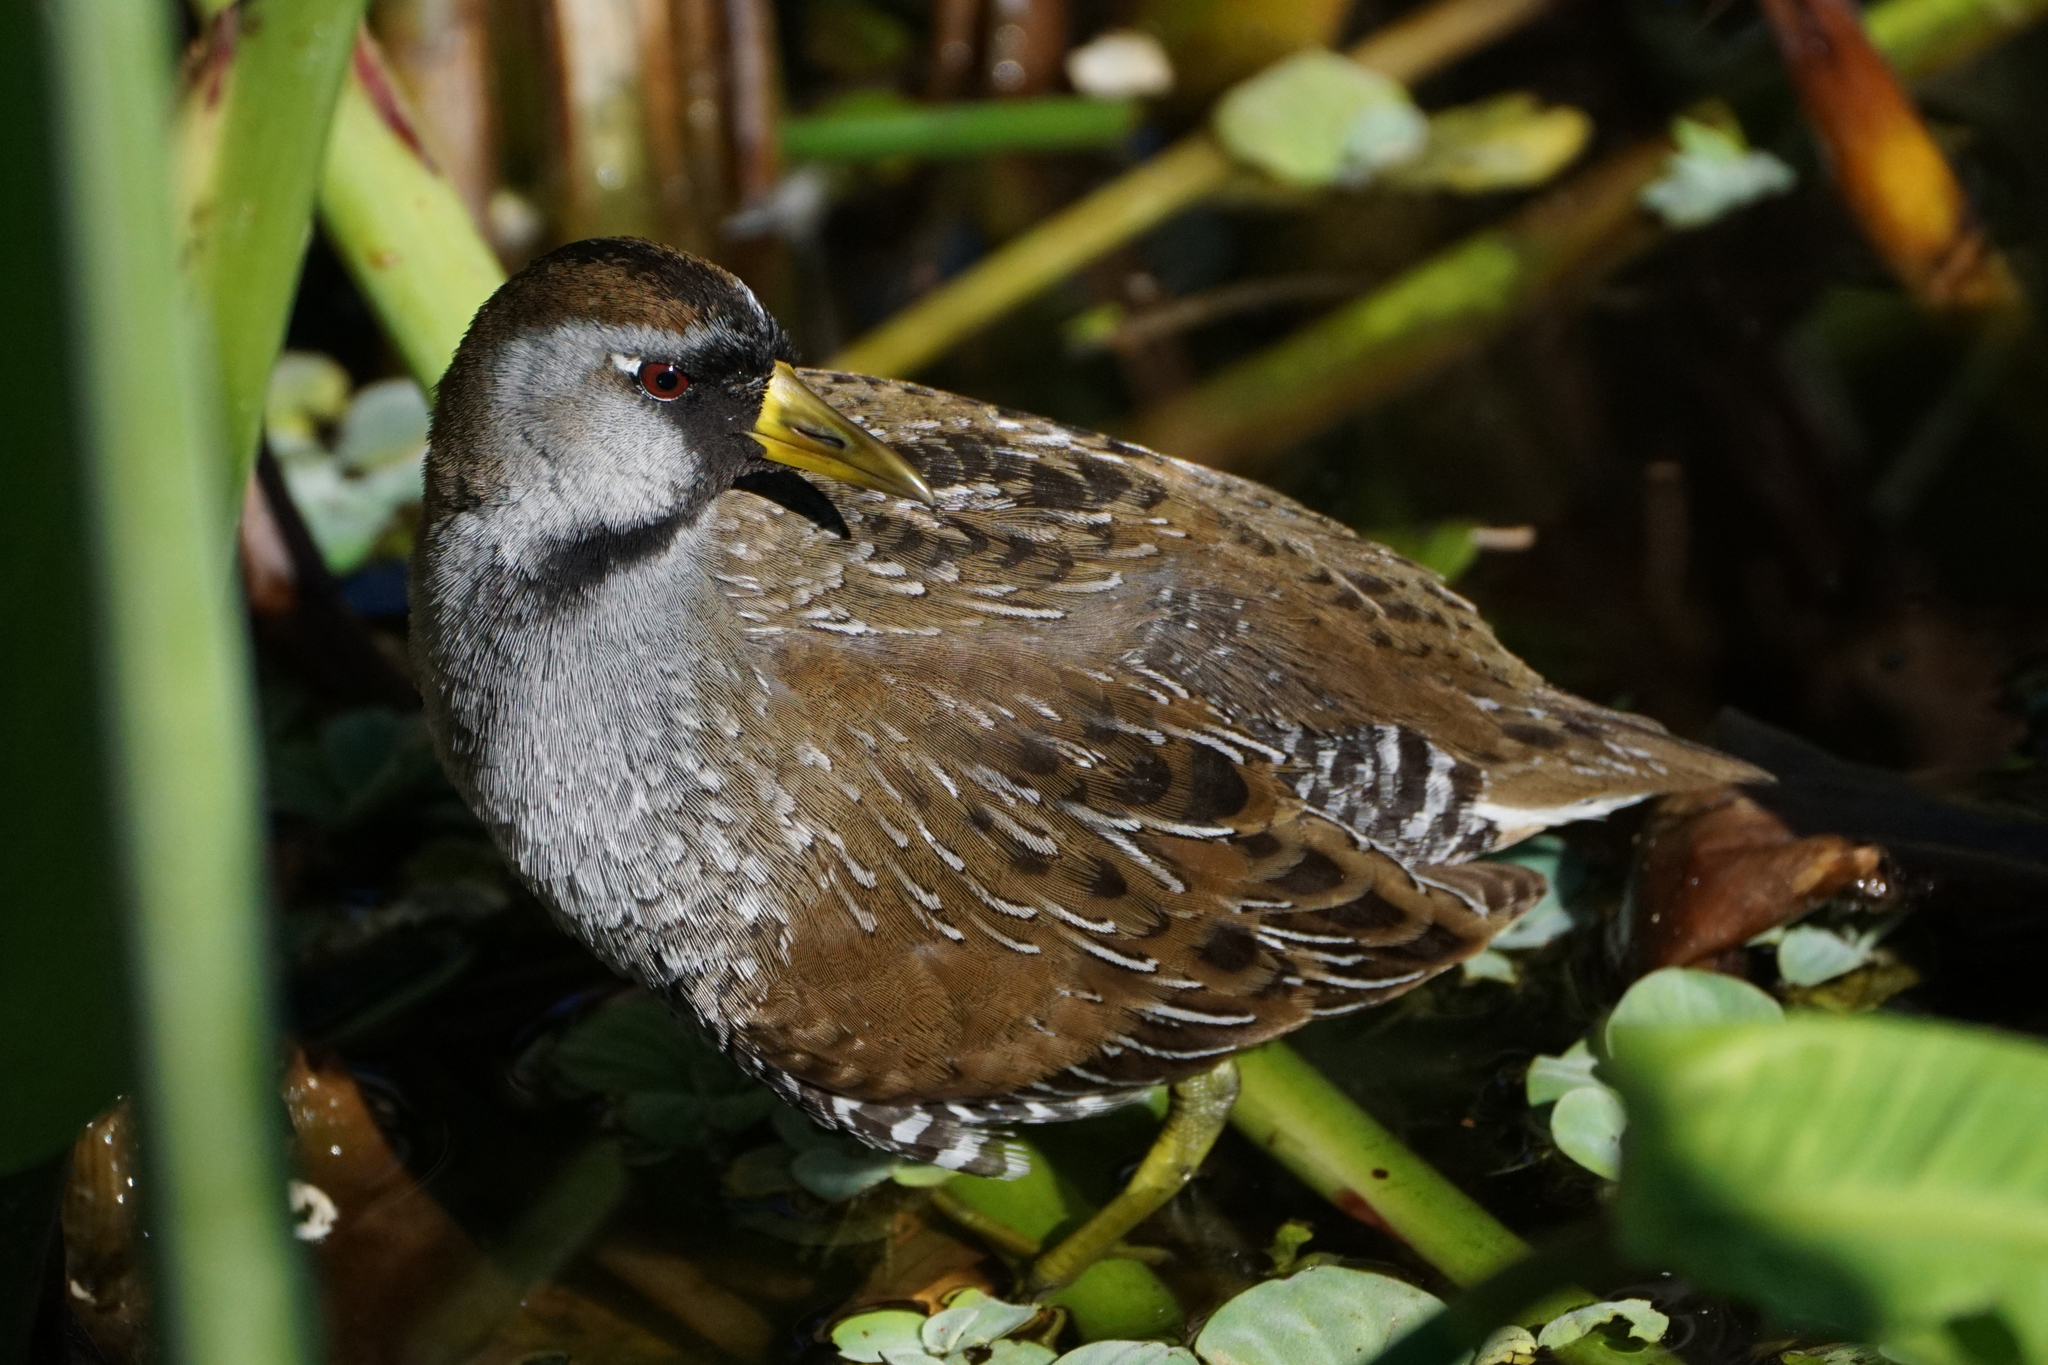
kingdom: Animalia
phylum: Chordata
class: Aves
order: Gruiformes
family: Rallidae
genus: Porzana
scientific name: Porzana carolina
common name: Sora
